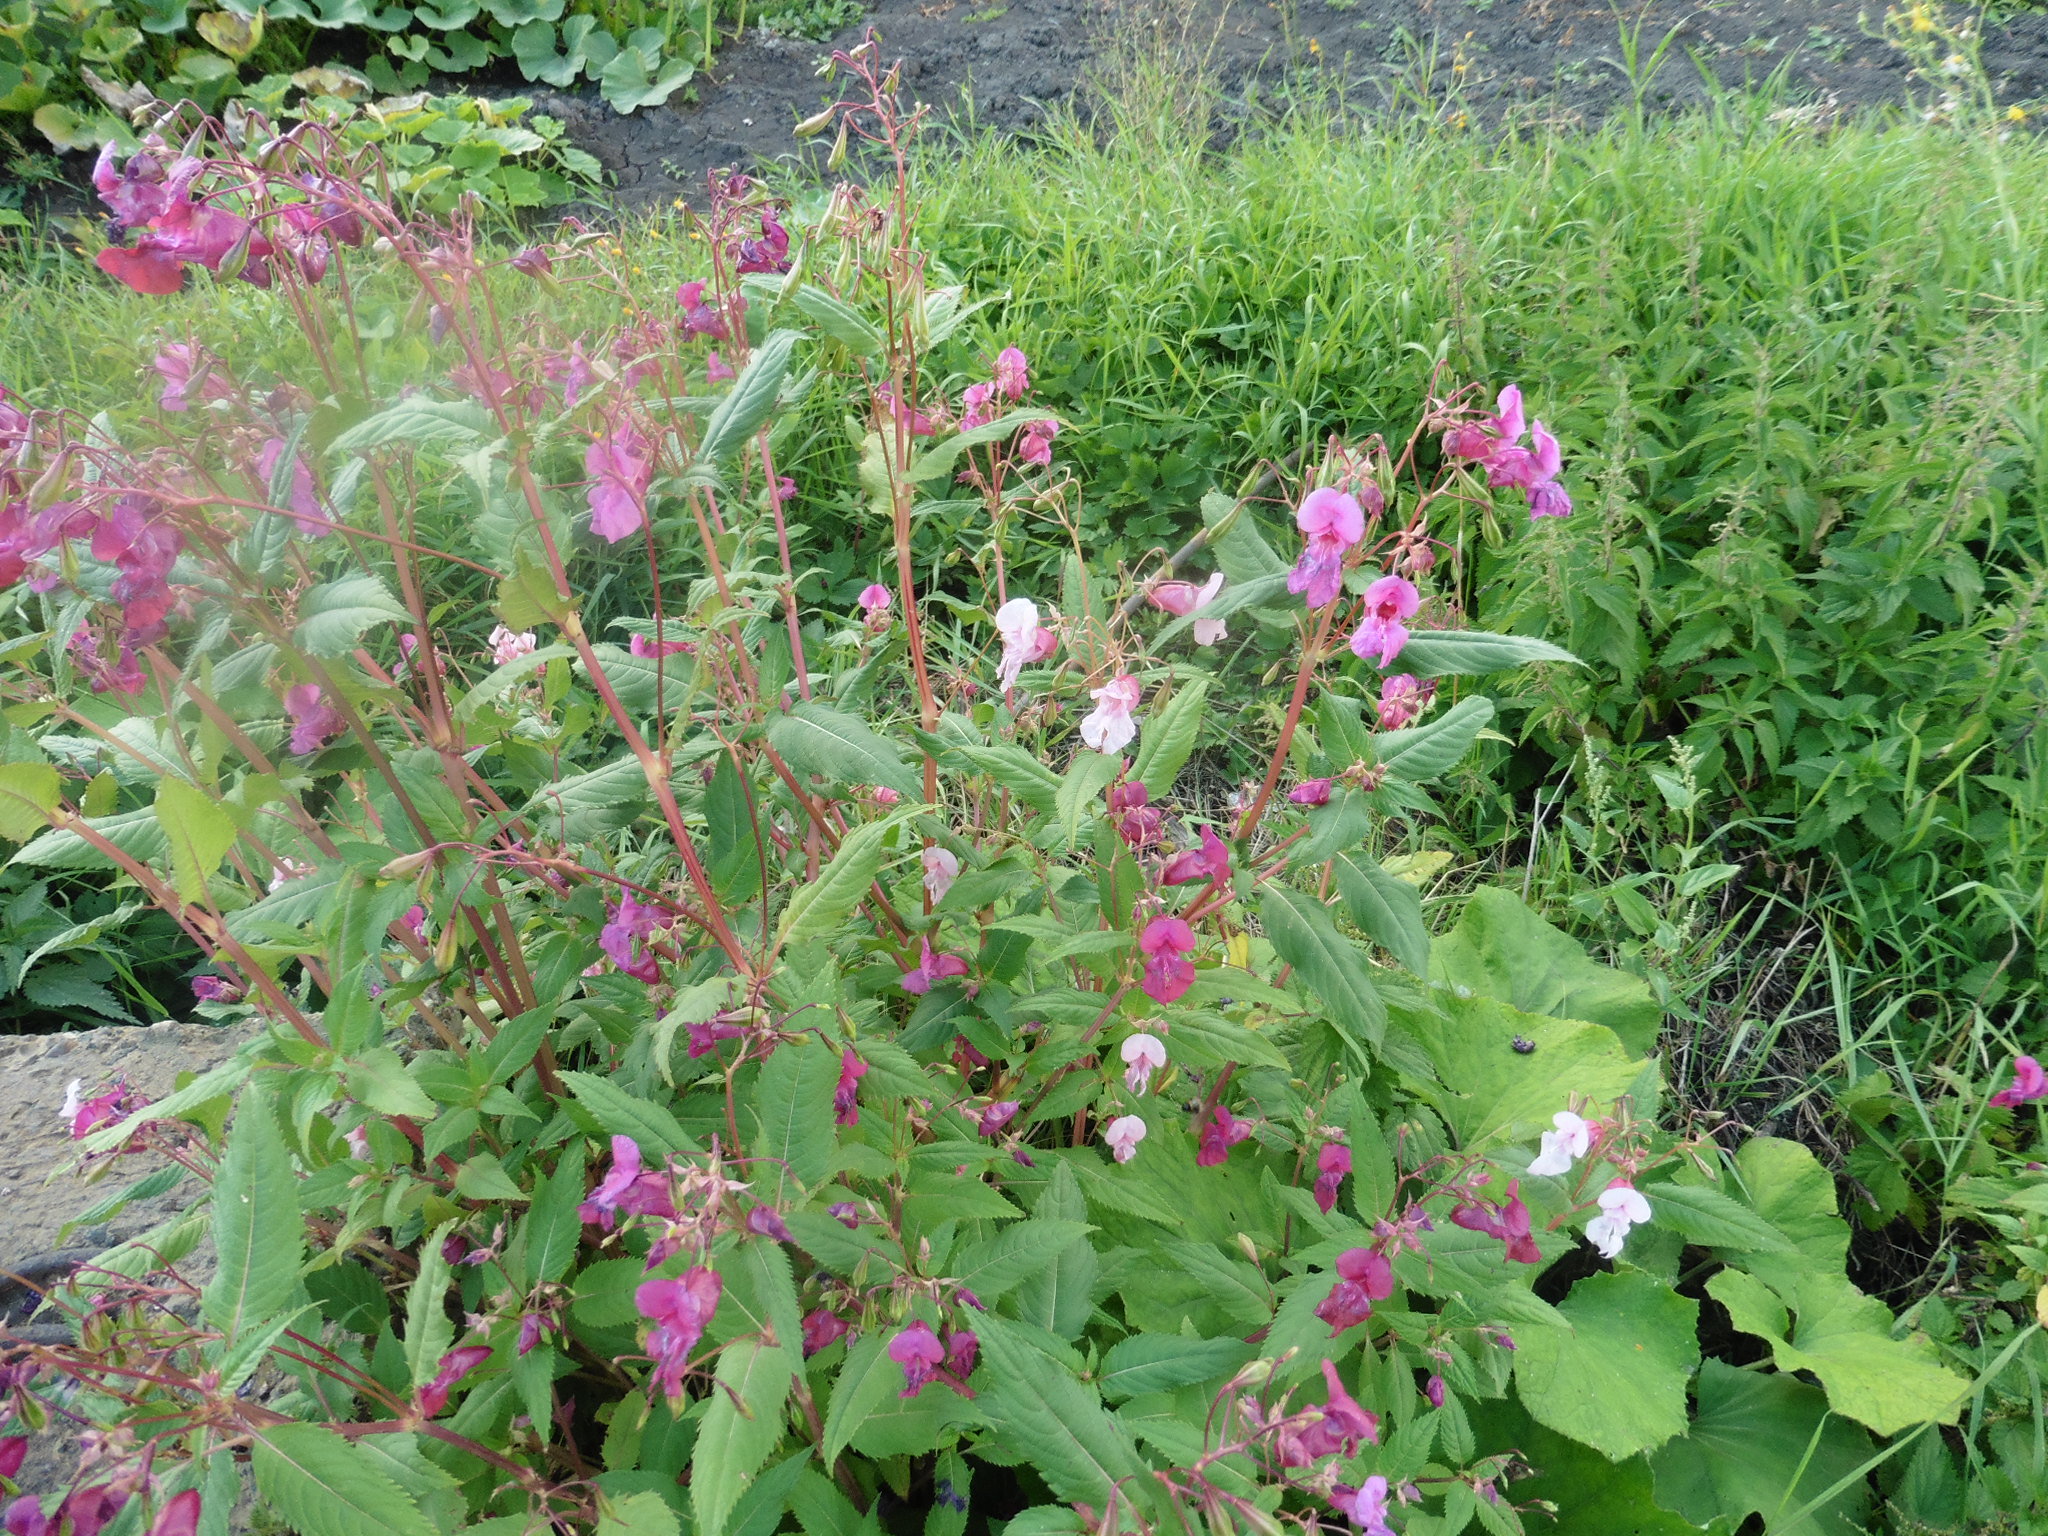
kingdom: Plantae
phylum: Tracheophyta
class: Magnoliopsida
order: Ericales
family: Balsaminaceae
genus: Impatiens
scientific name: Impatiens glandulifera
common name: Himalayan balsam
